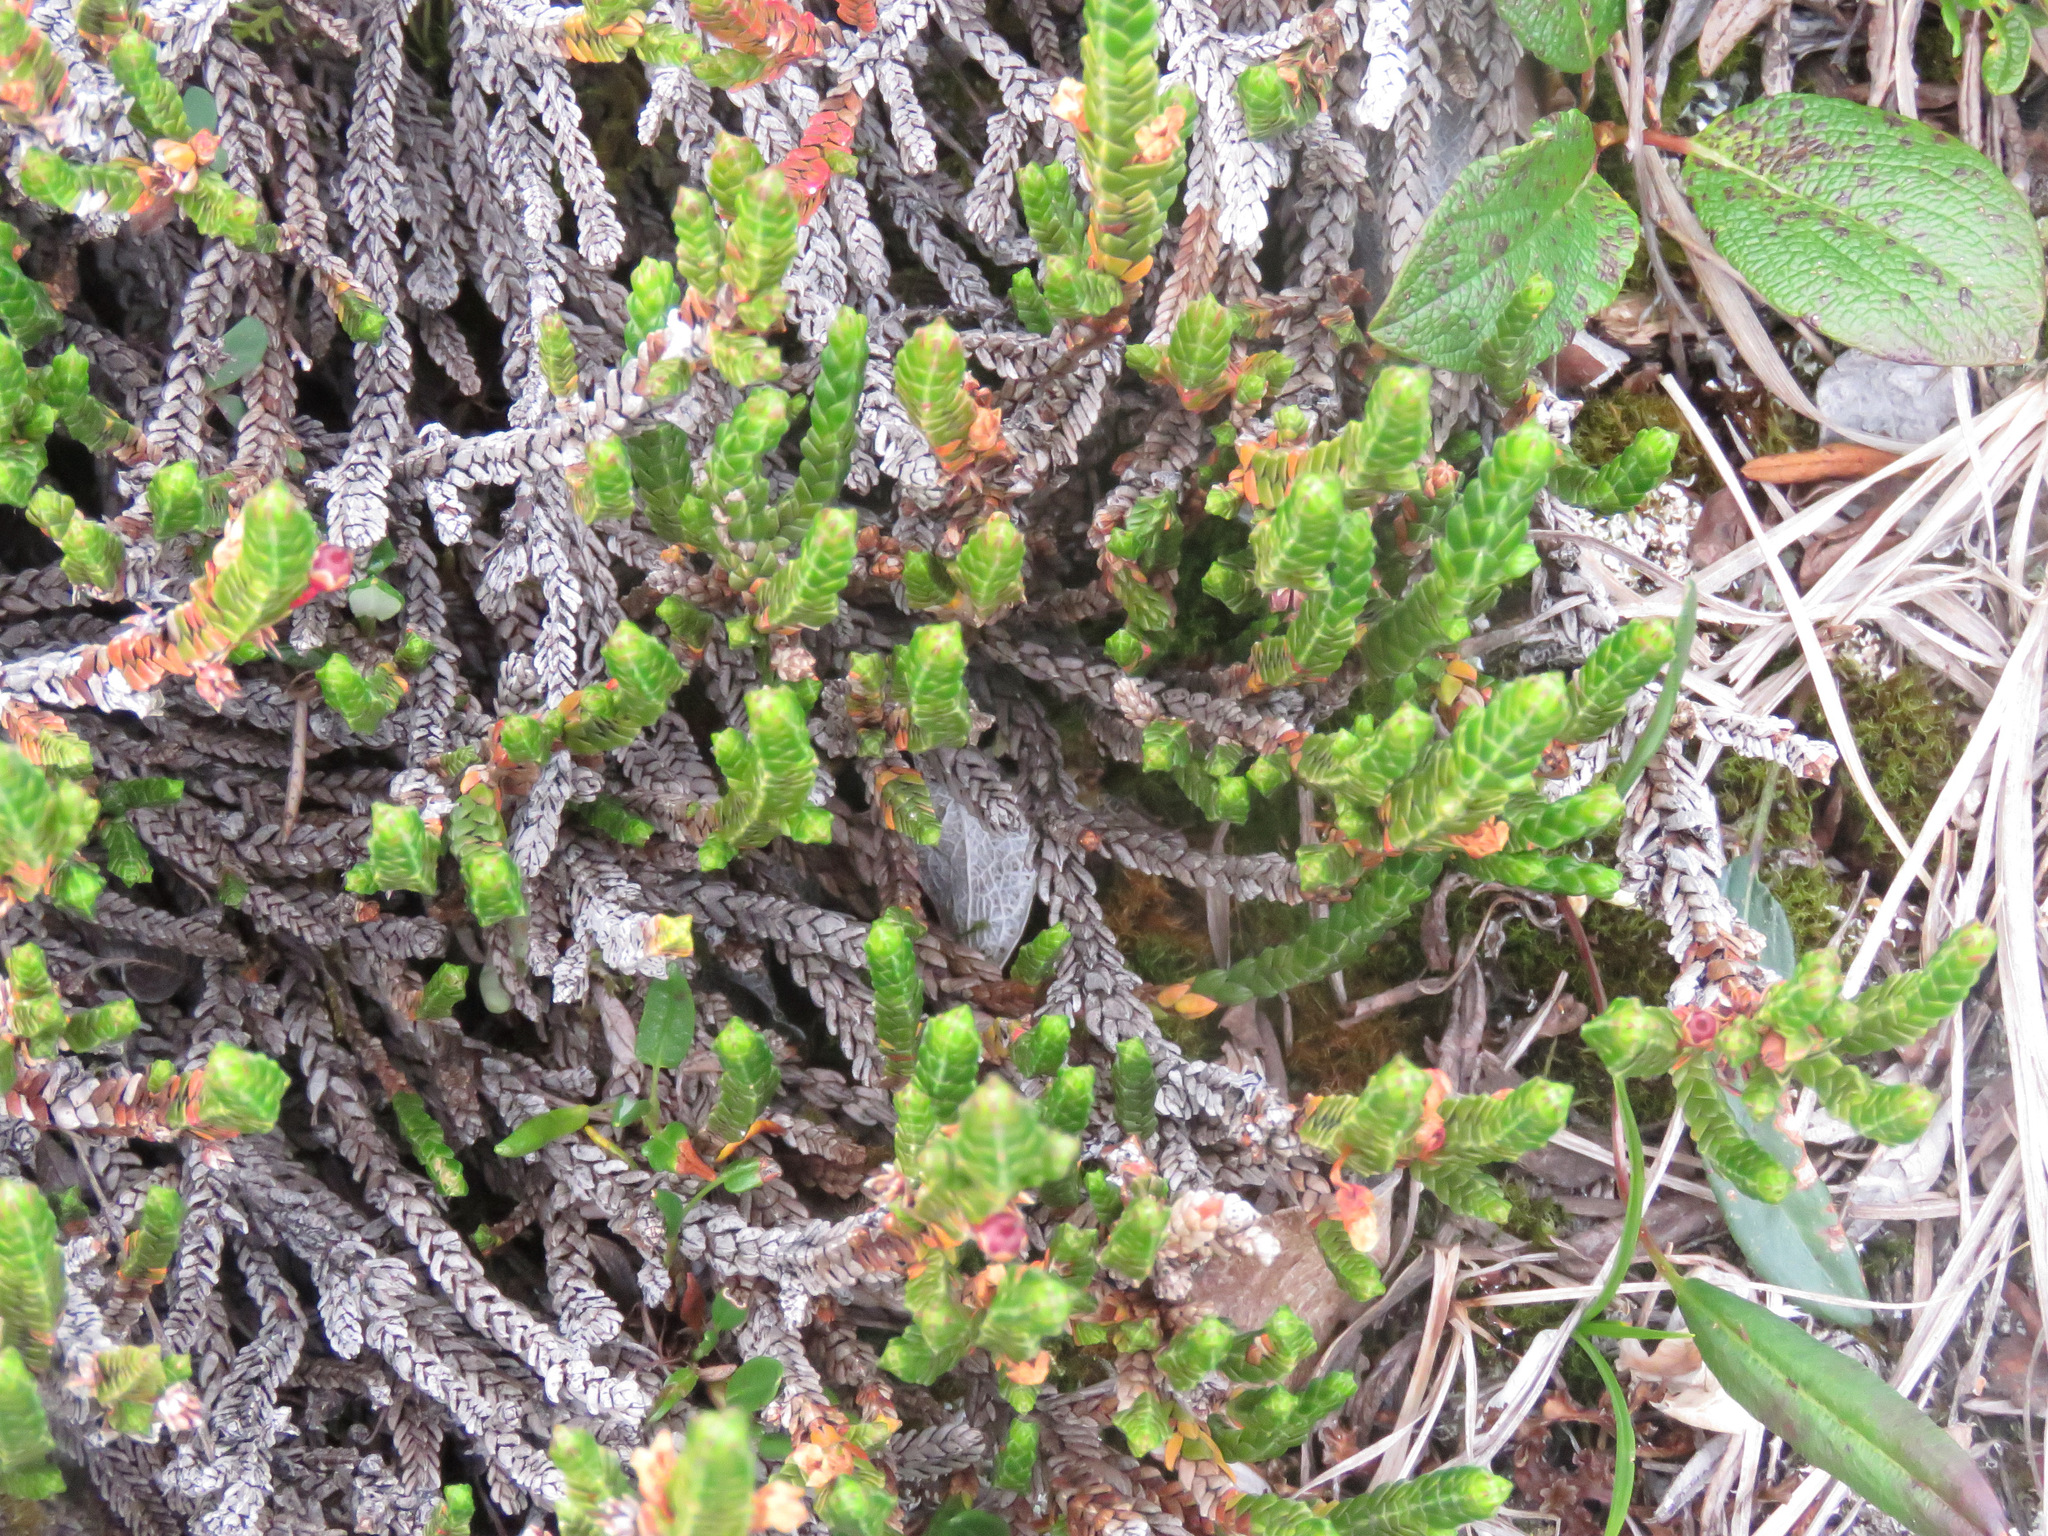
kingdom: Plantae
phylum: Tracheophyta
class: Magnoliopsida
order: Ericales
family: Ericaceae
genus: Cassiope
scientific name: Cassiope tetragona
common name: Arctic bell heather
